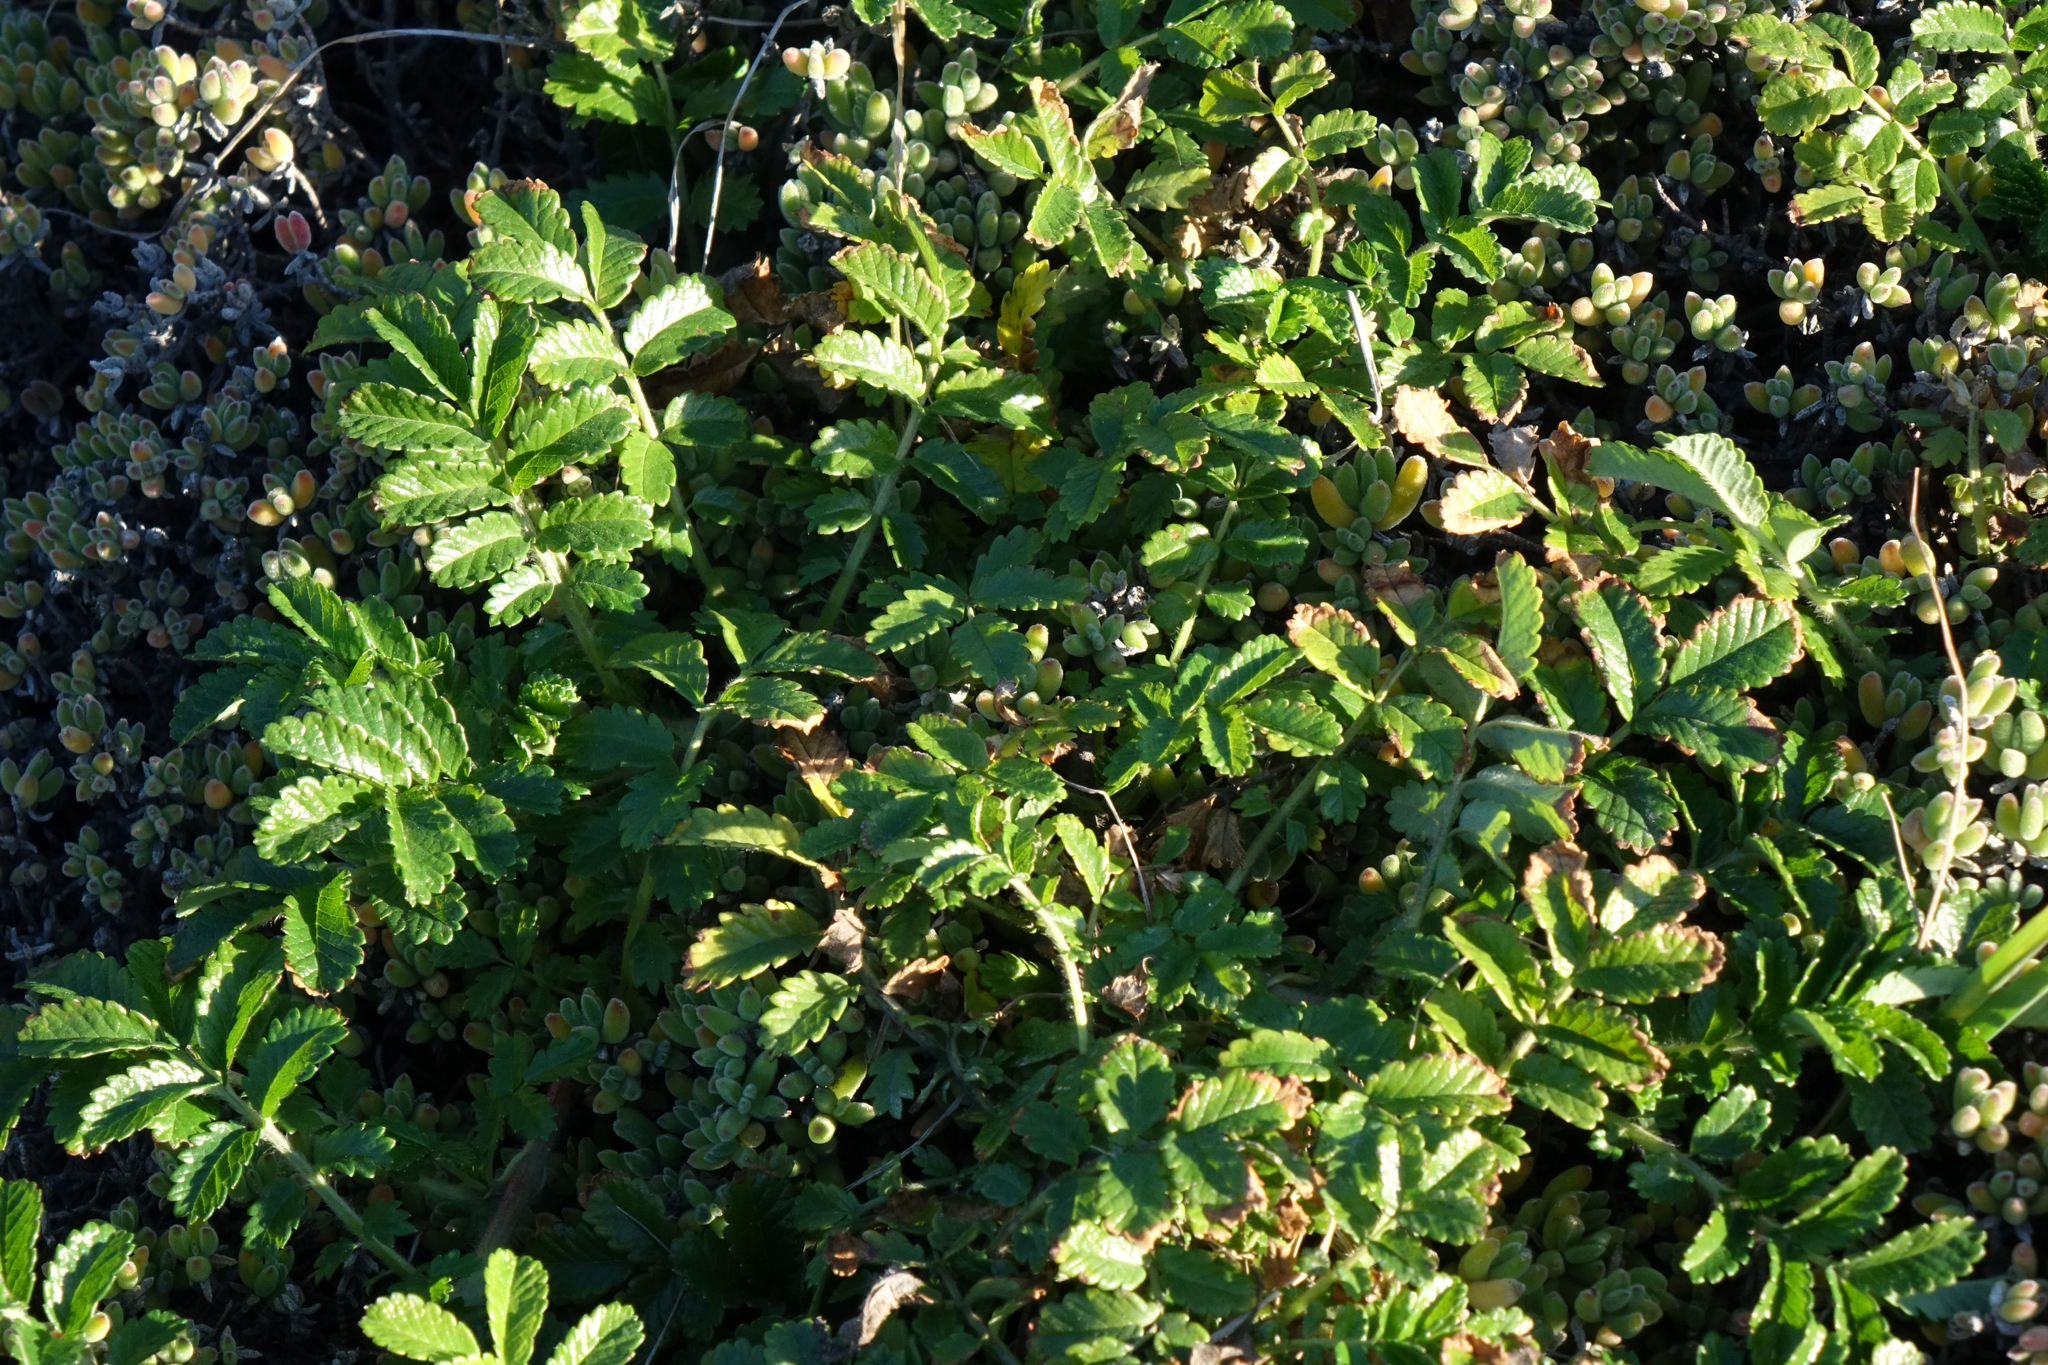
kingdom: Plantae
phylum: Tracheophyta
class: Magnoliopsida
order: Rosales
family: Rosaceae
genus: Acaena
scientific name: Acaena pallida
